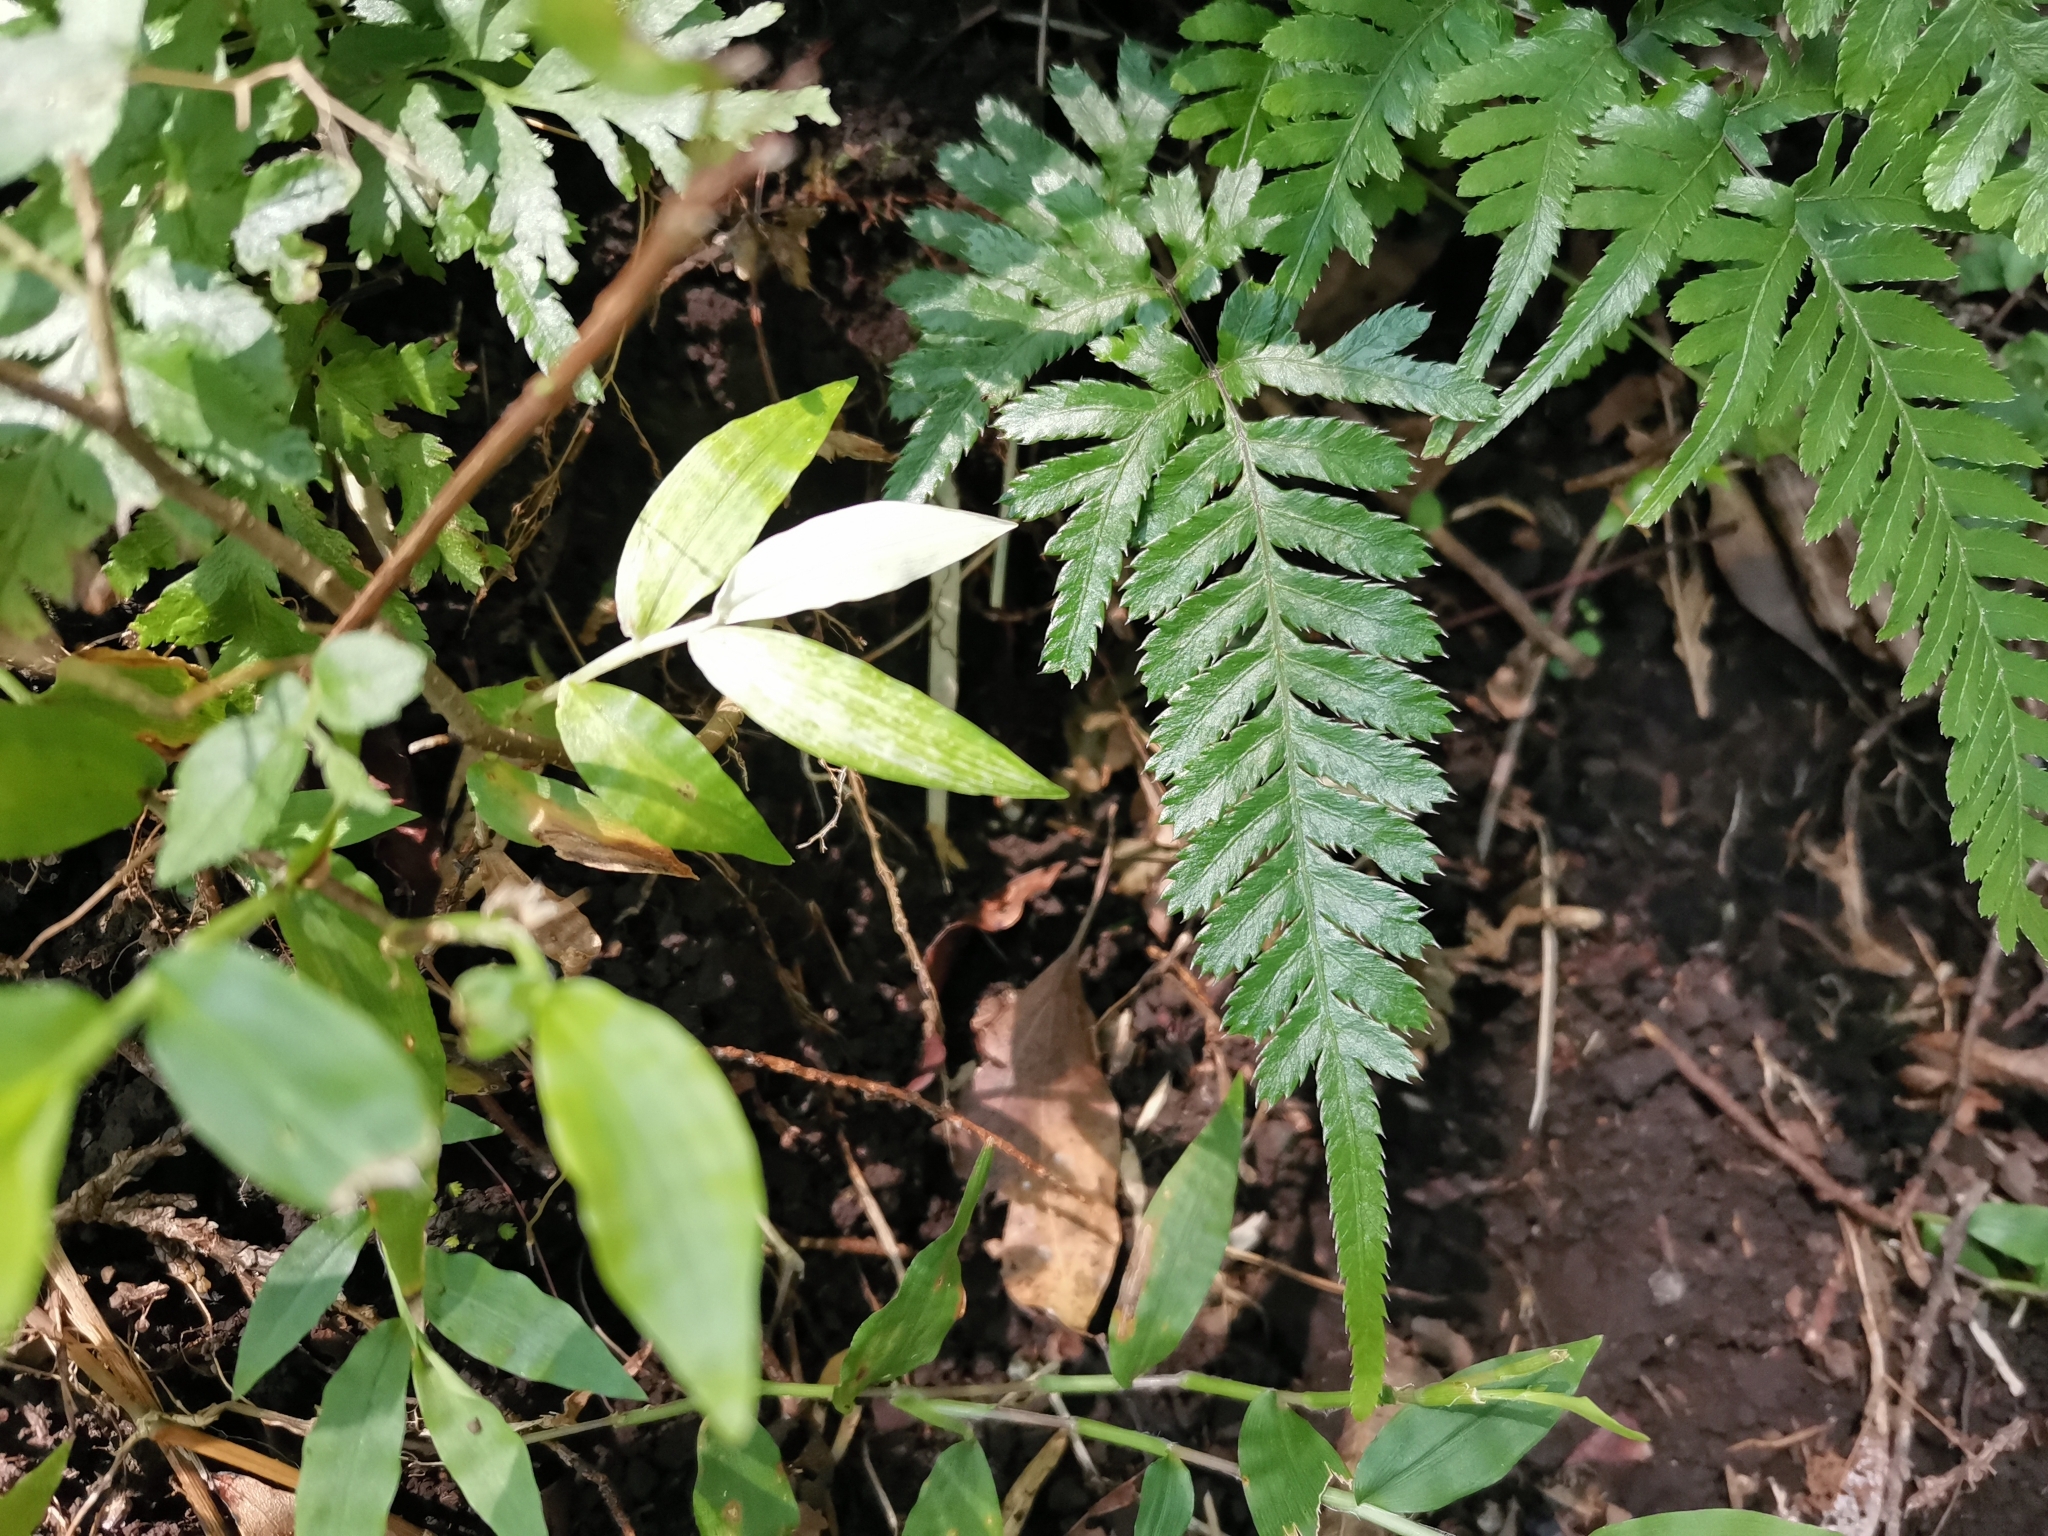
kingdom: Plantae
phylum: Tracheophyta
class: Polypodiopsida
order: Polypodiales
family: Pteridaceae
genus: Pteris
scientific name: Pteris dispar
